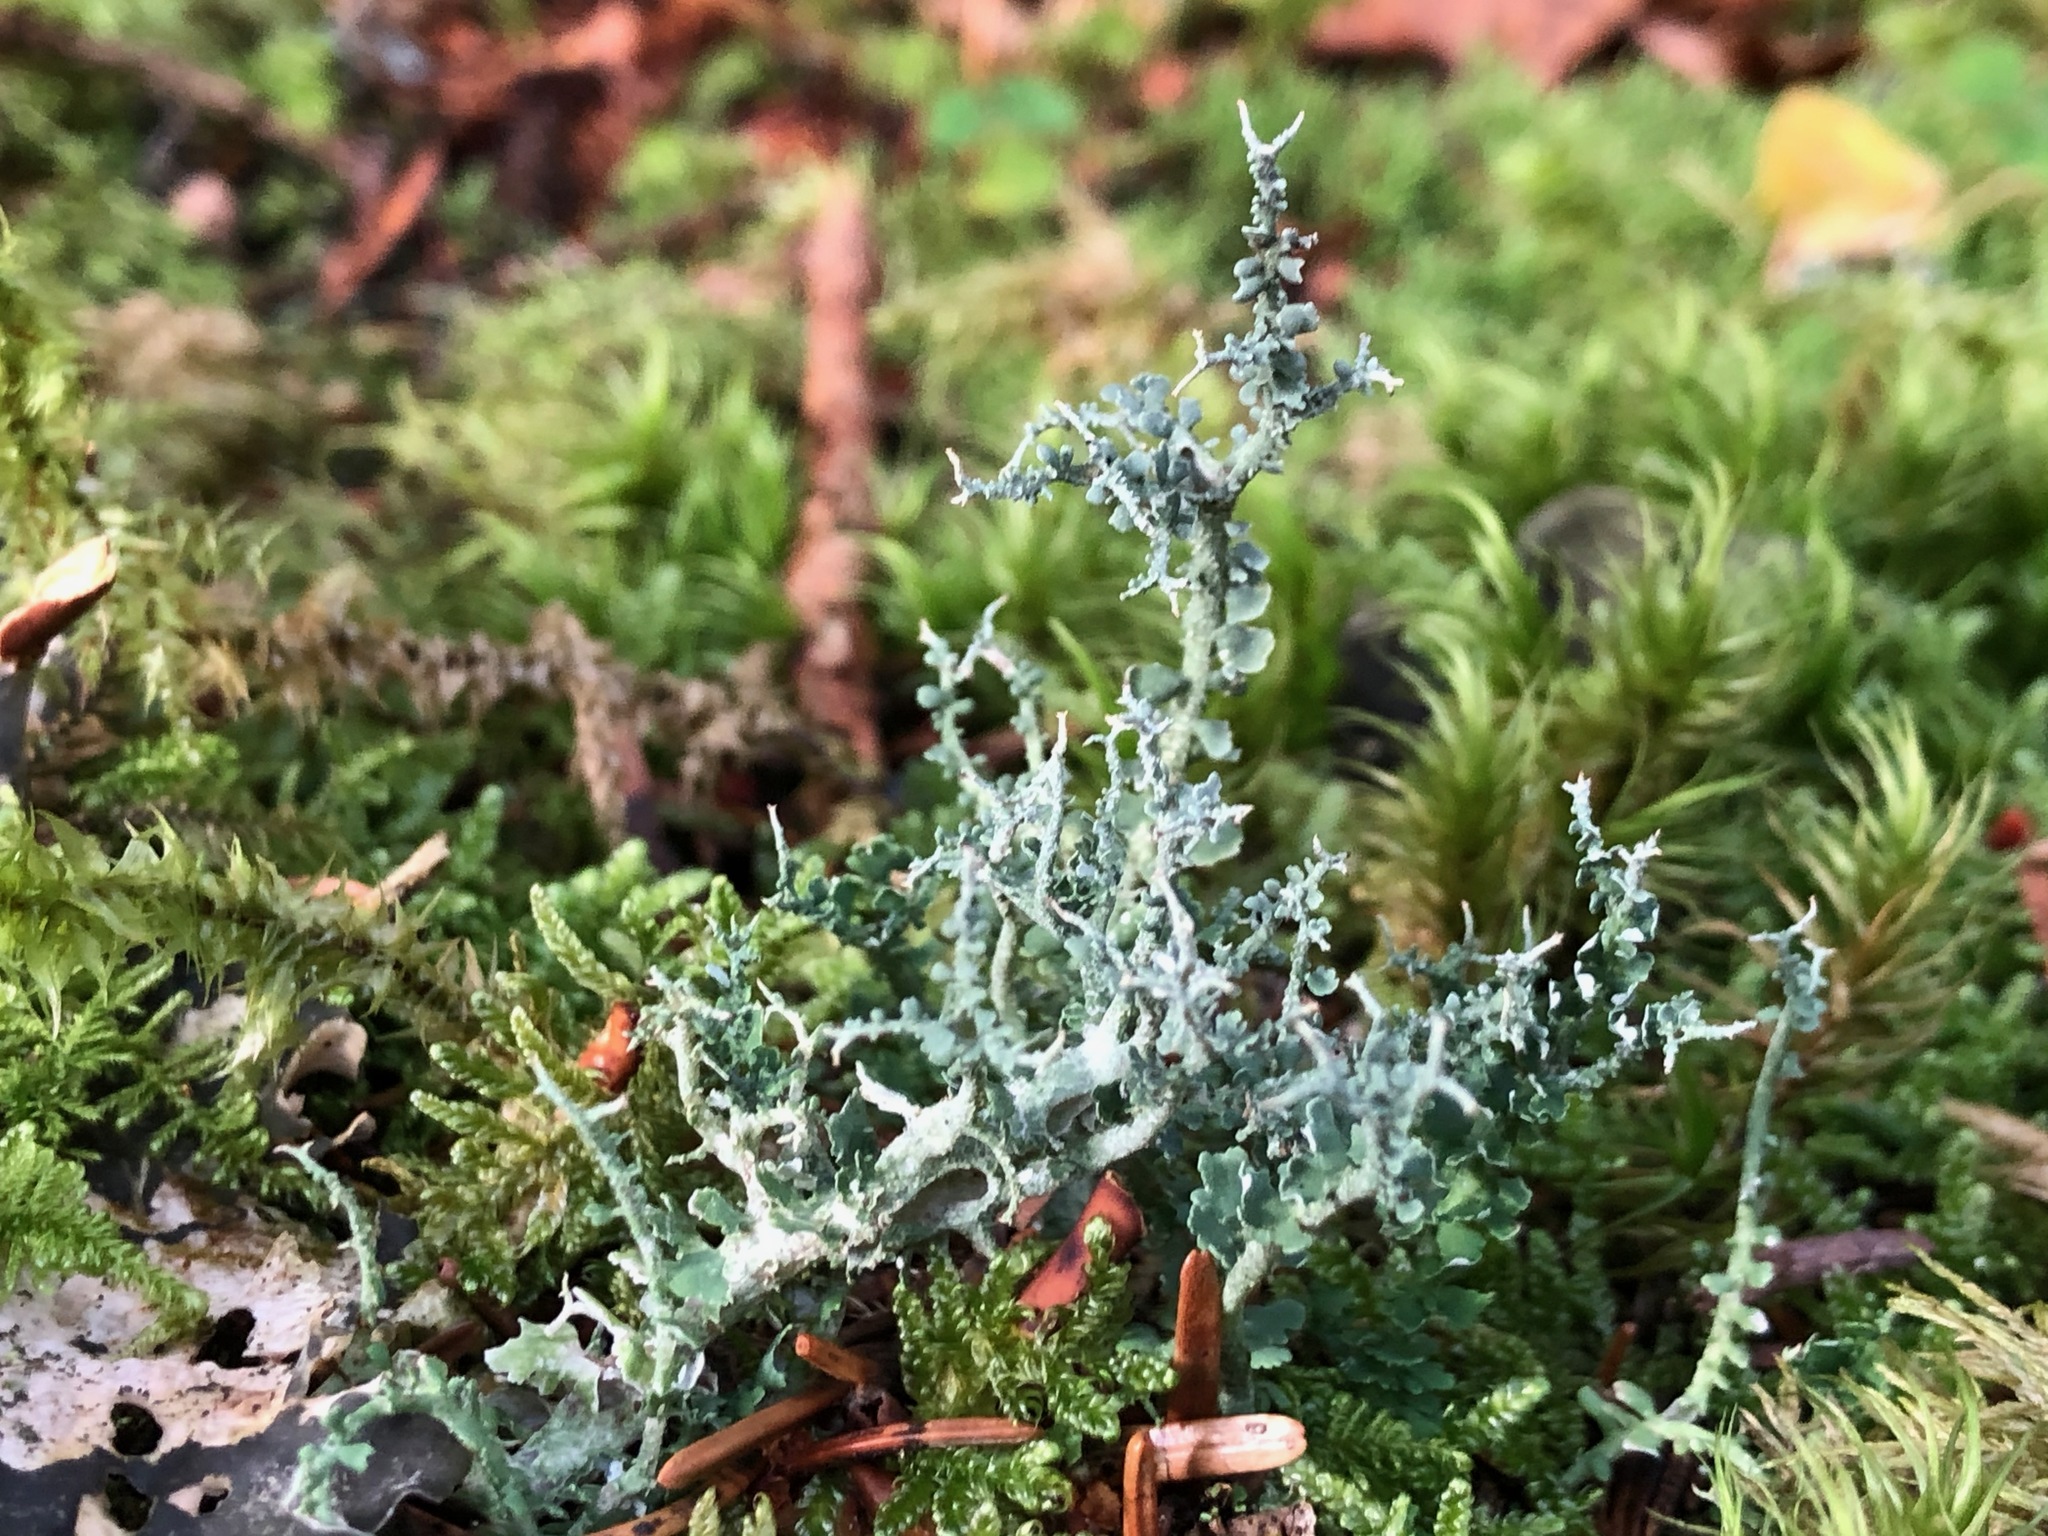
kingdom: Fungi
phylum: Ascomycota
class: Lecanoromycetes
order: Lecanorales
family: Cladoniaceae
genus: Cladonia
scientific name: Cladonia furcata
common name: Many-forked cladonia
